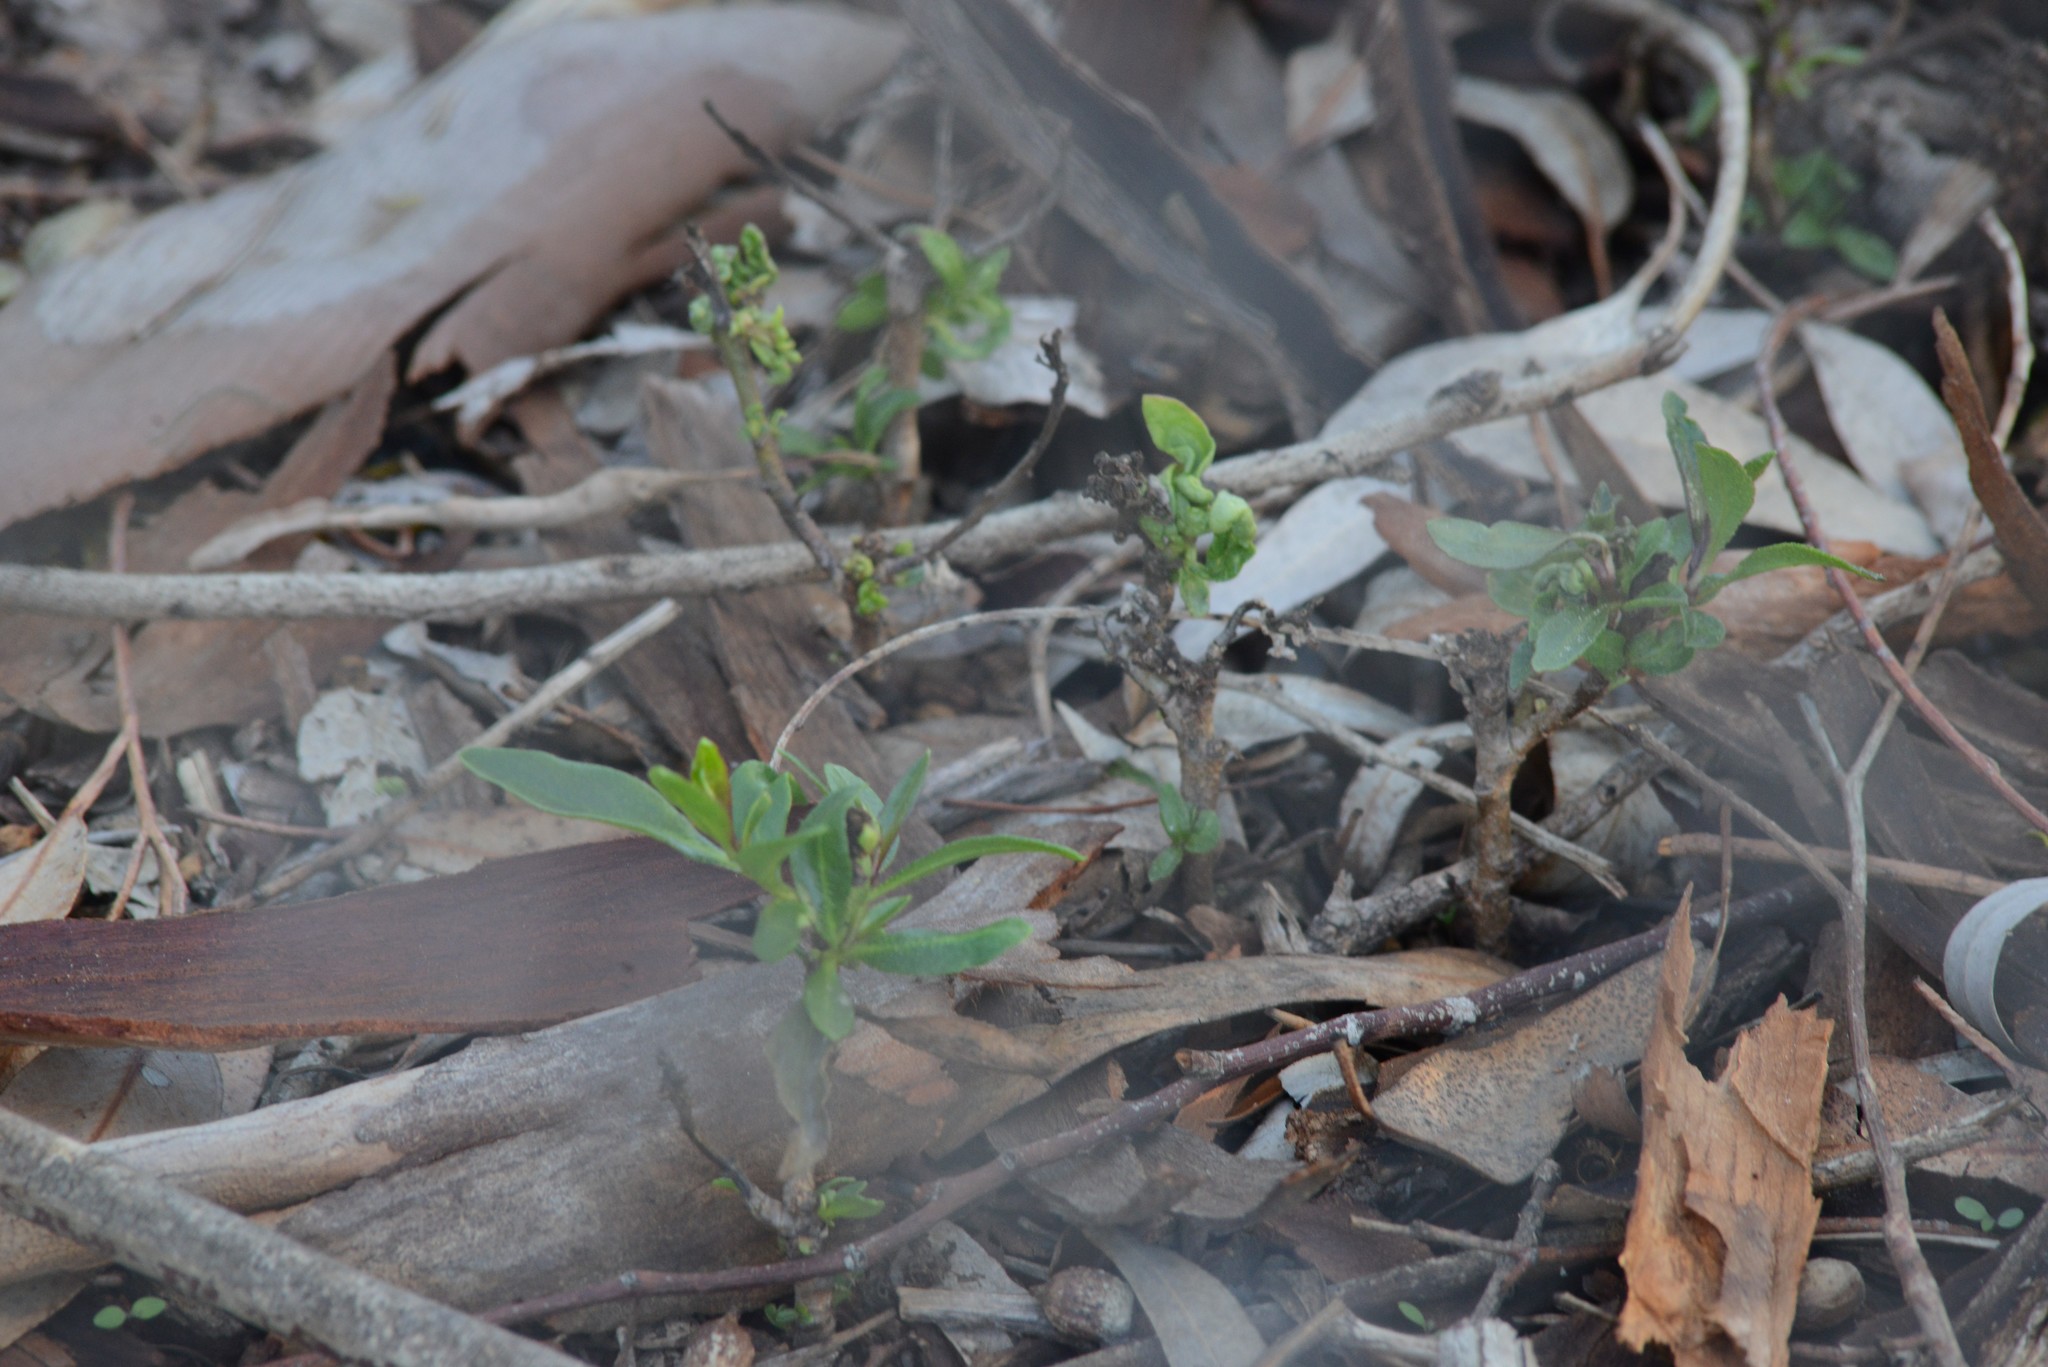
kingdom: Plantae
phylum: Tracheophyta
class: Magnoliopsida
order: Lamiales
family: Scrophulariaceae
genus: Myoporum
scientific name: Myoporum laetum
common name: Ngaio tree
